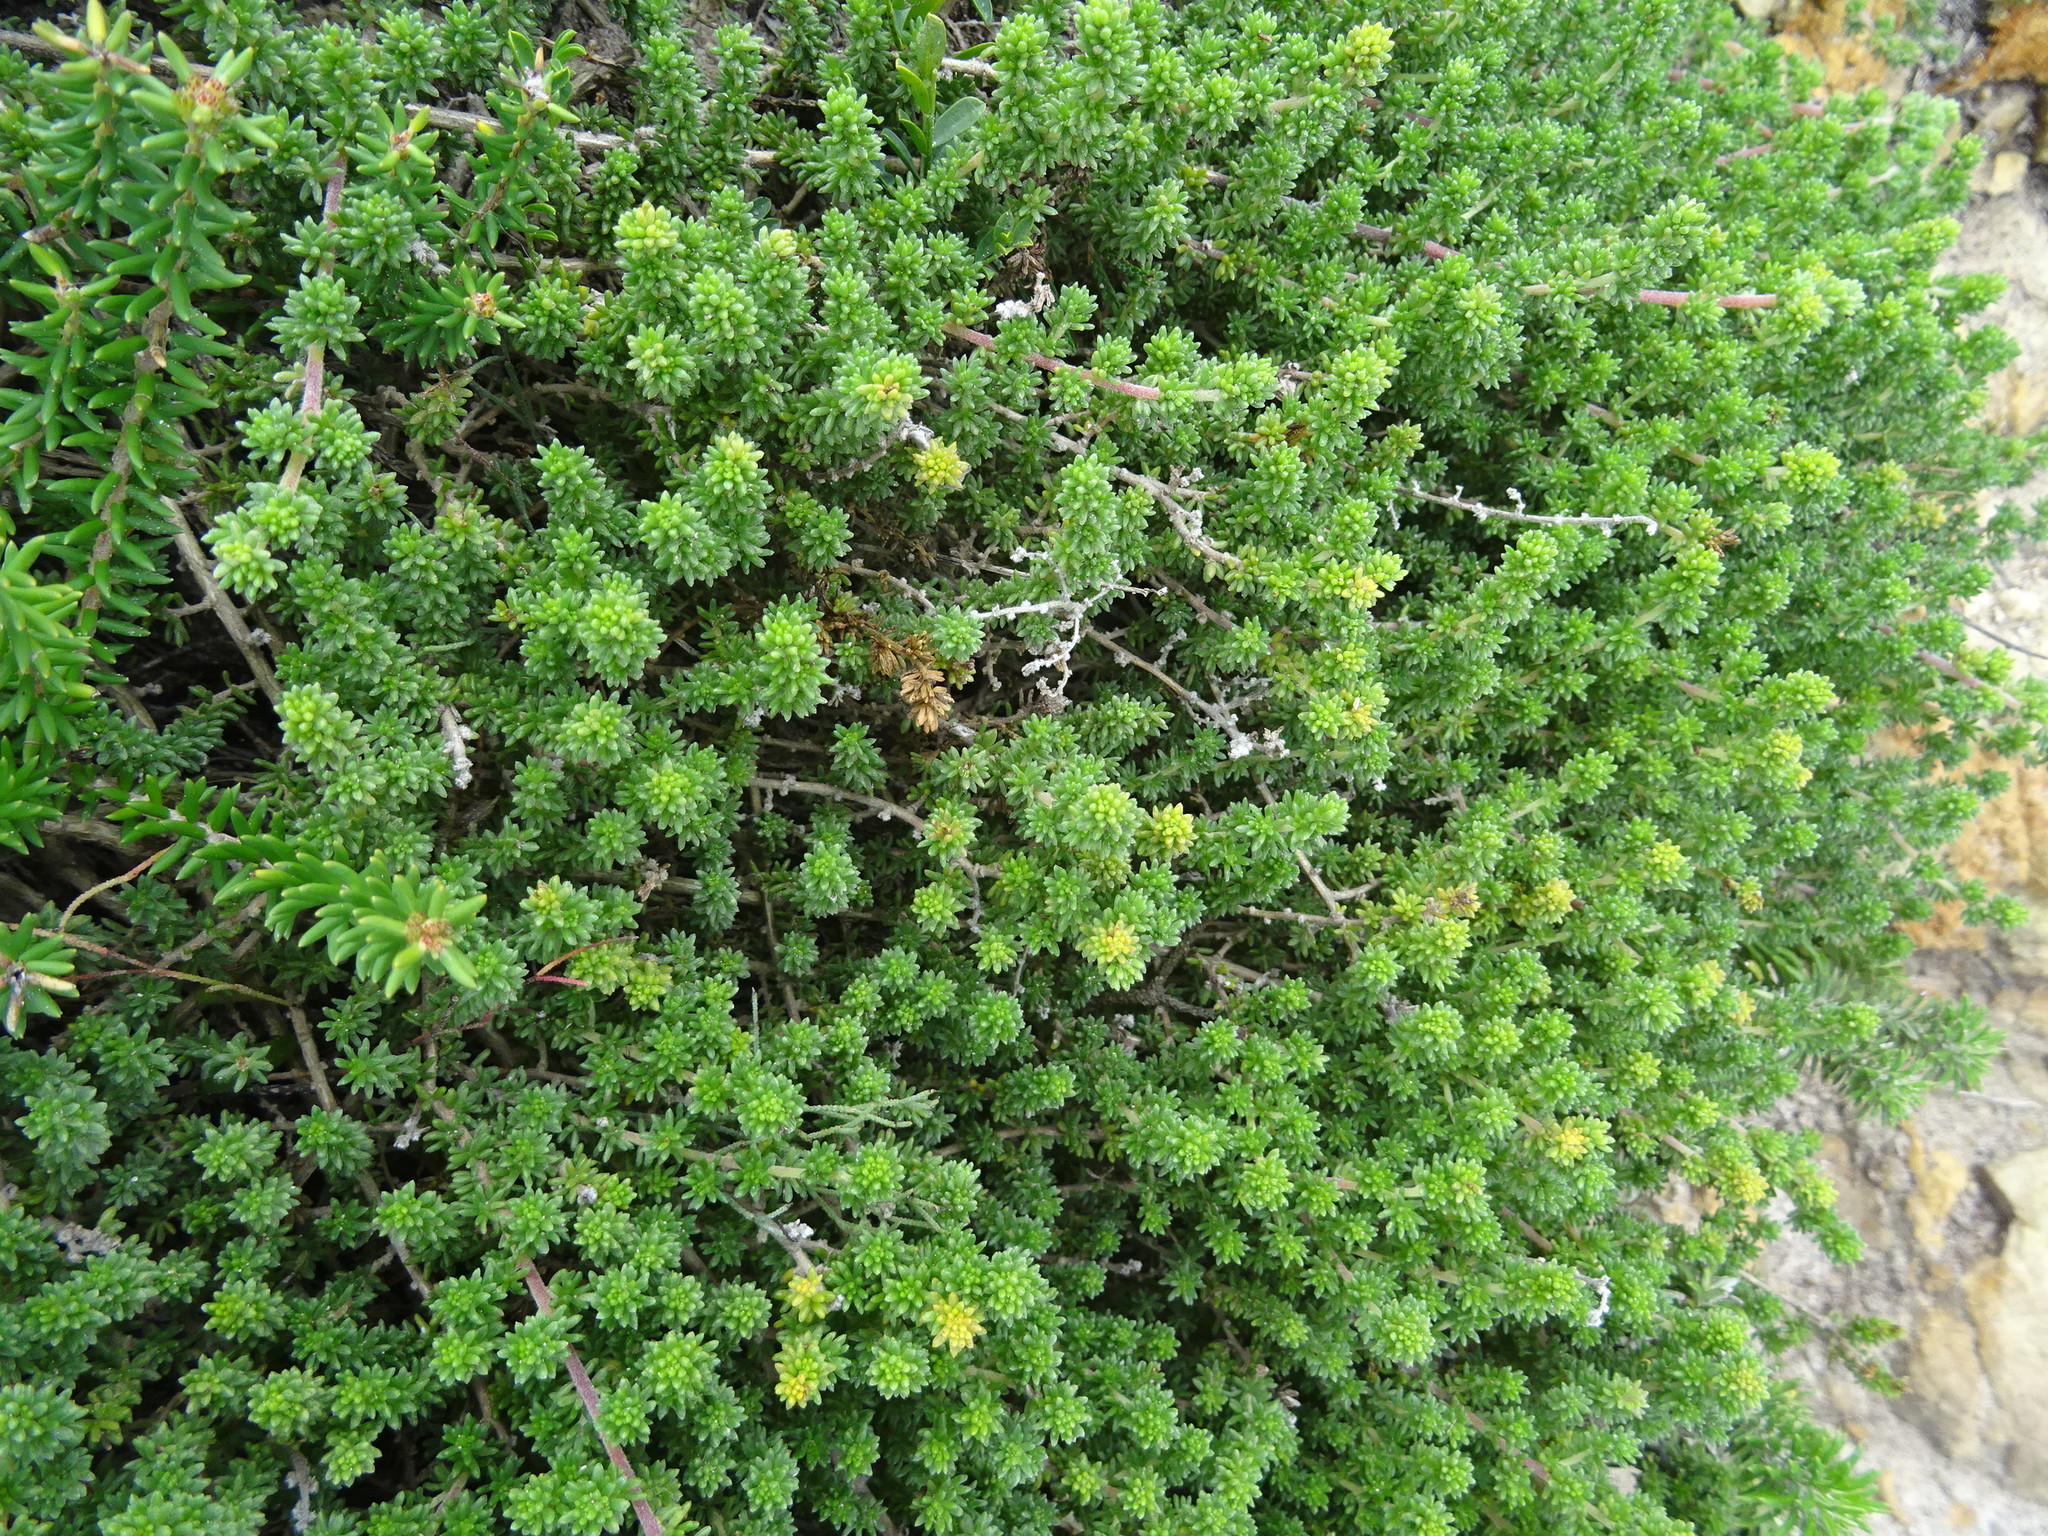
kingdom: Plantae
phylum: Tracheophyta
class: Magnoliopsida
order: Fabales
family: Fabaceae
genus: Aspalathus
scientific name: Aspalathus salteri
